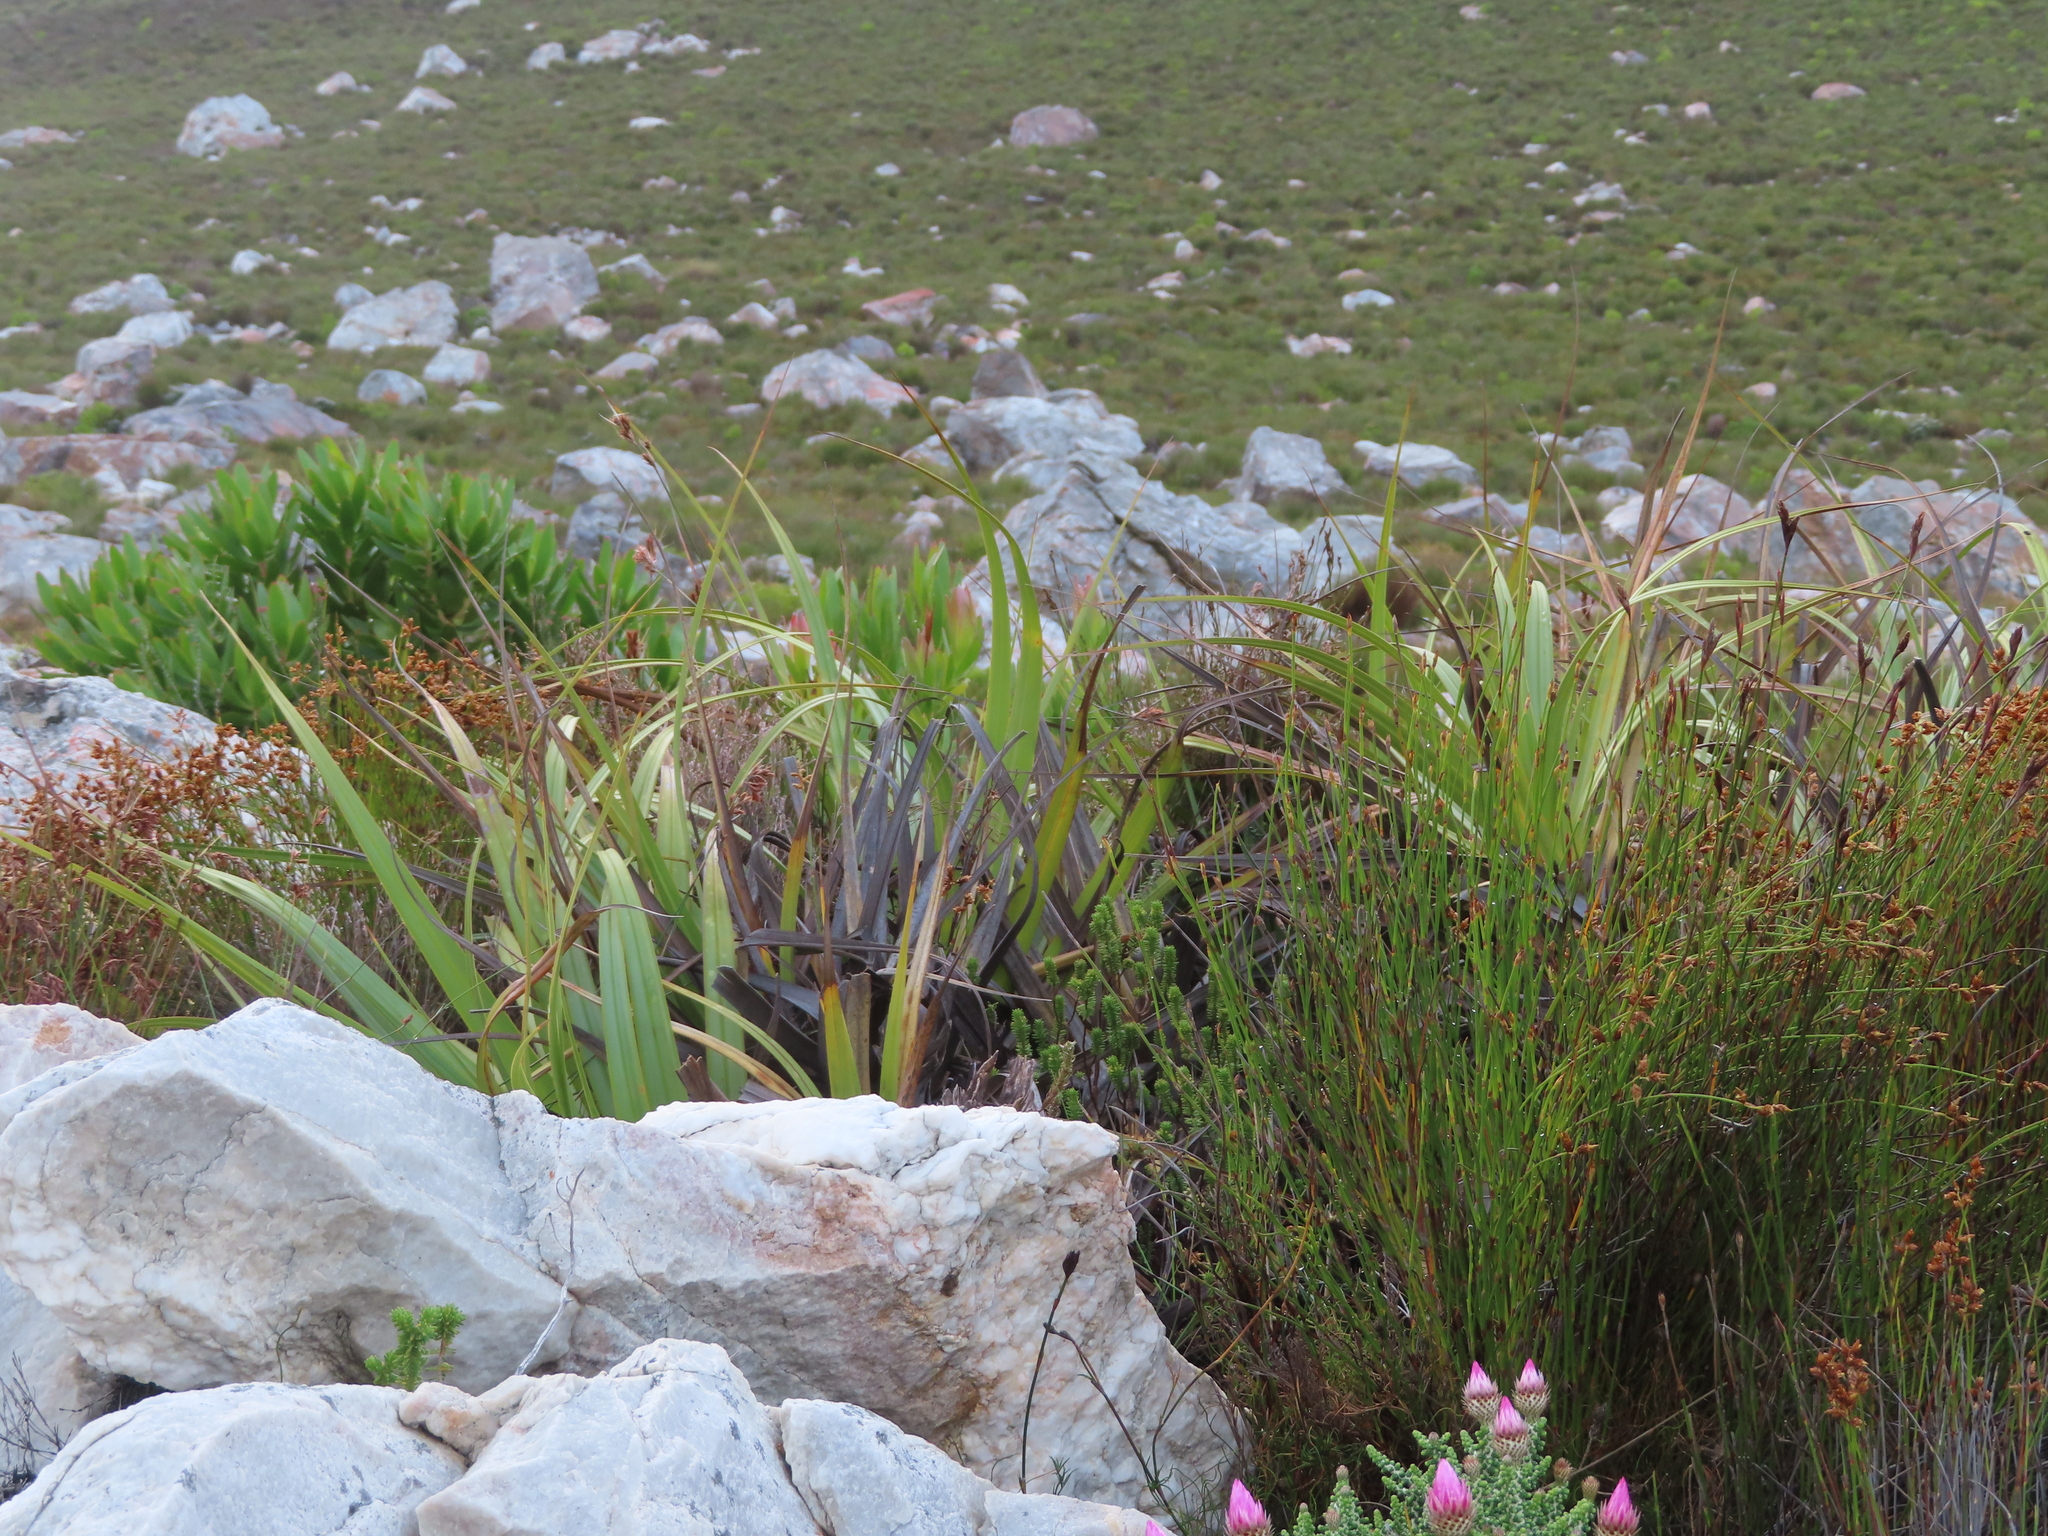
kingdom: Plantae
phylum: Tracheophyta
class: Liliopsida
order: Poales
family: Cyperaceae
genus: Tetraria
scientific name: Tetraria thermalis
